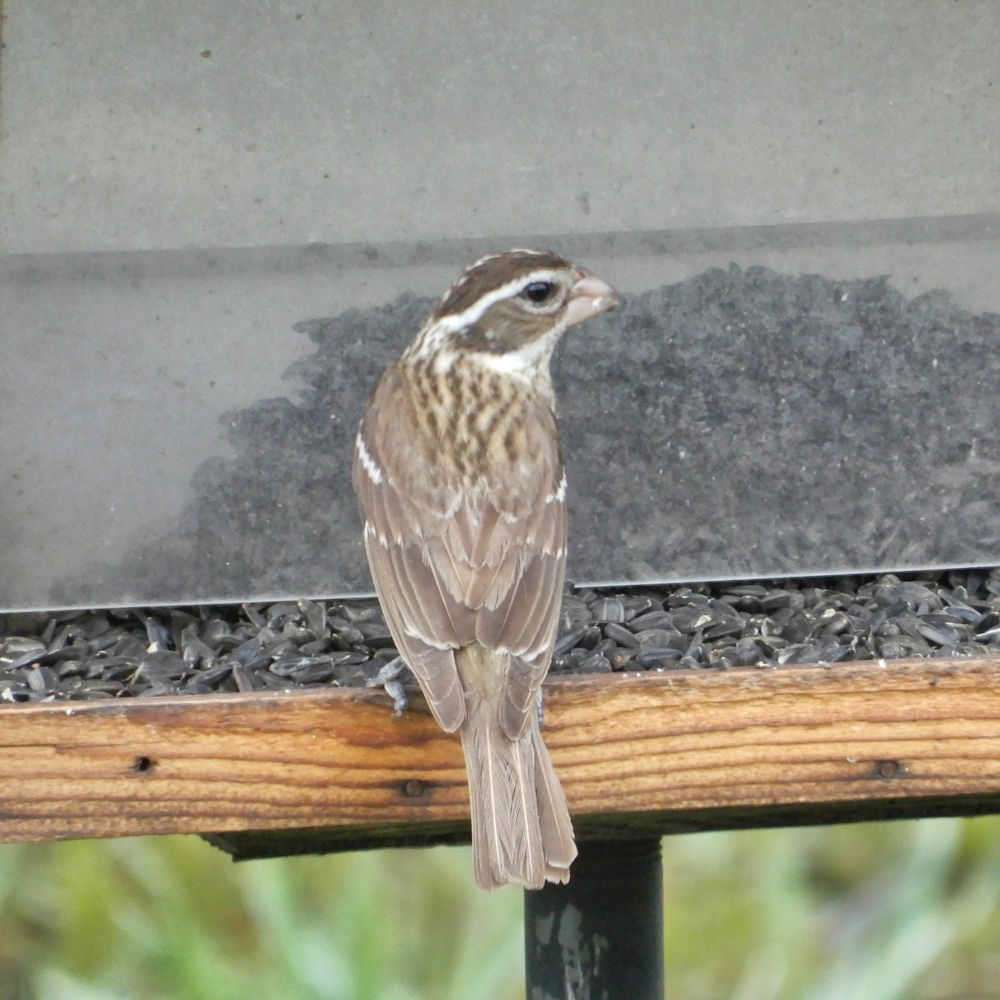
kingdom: Animalia
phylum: Chordata
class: Aves
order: Passeriformes
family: Cardinalidae
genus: Pheucticus
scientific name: Pheucticus ludovicianus
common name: Rose-breasted grosbeak
